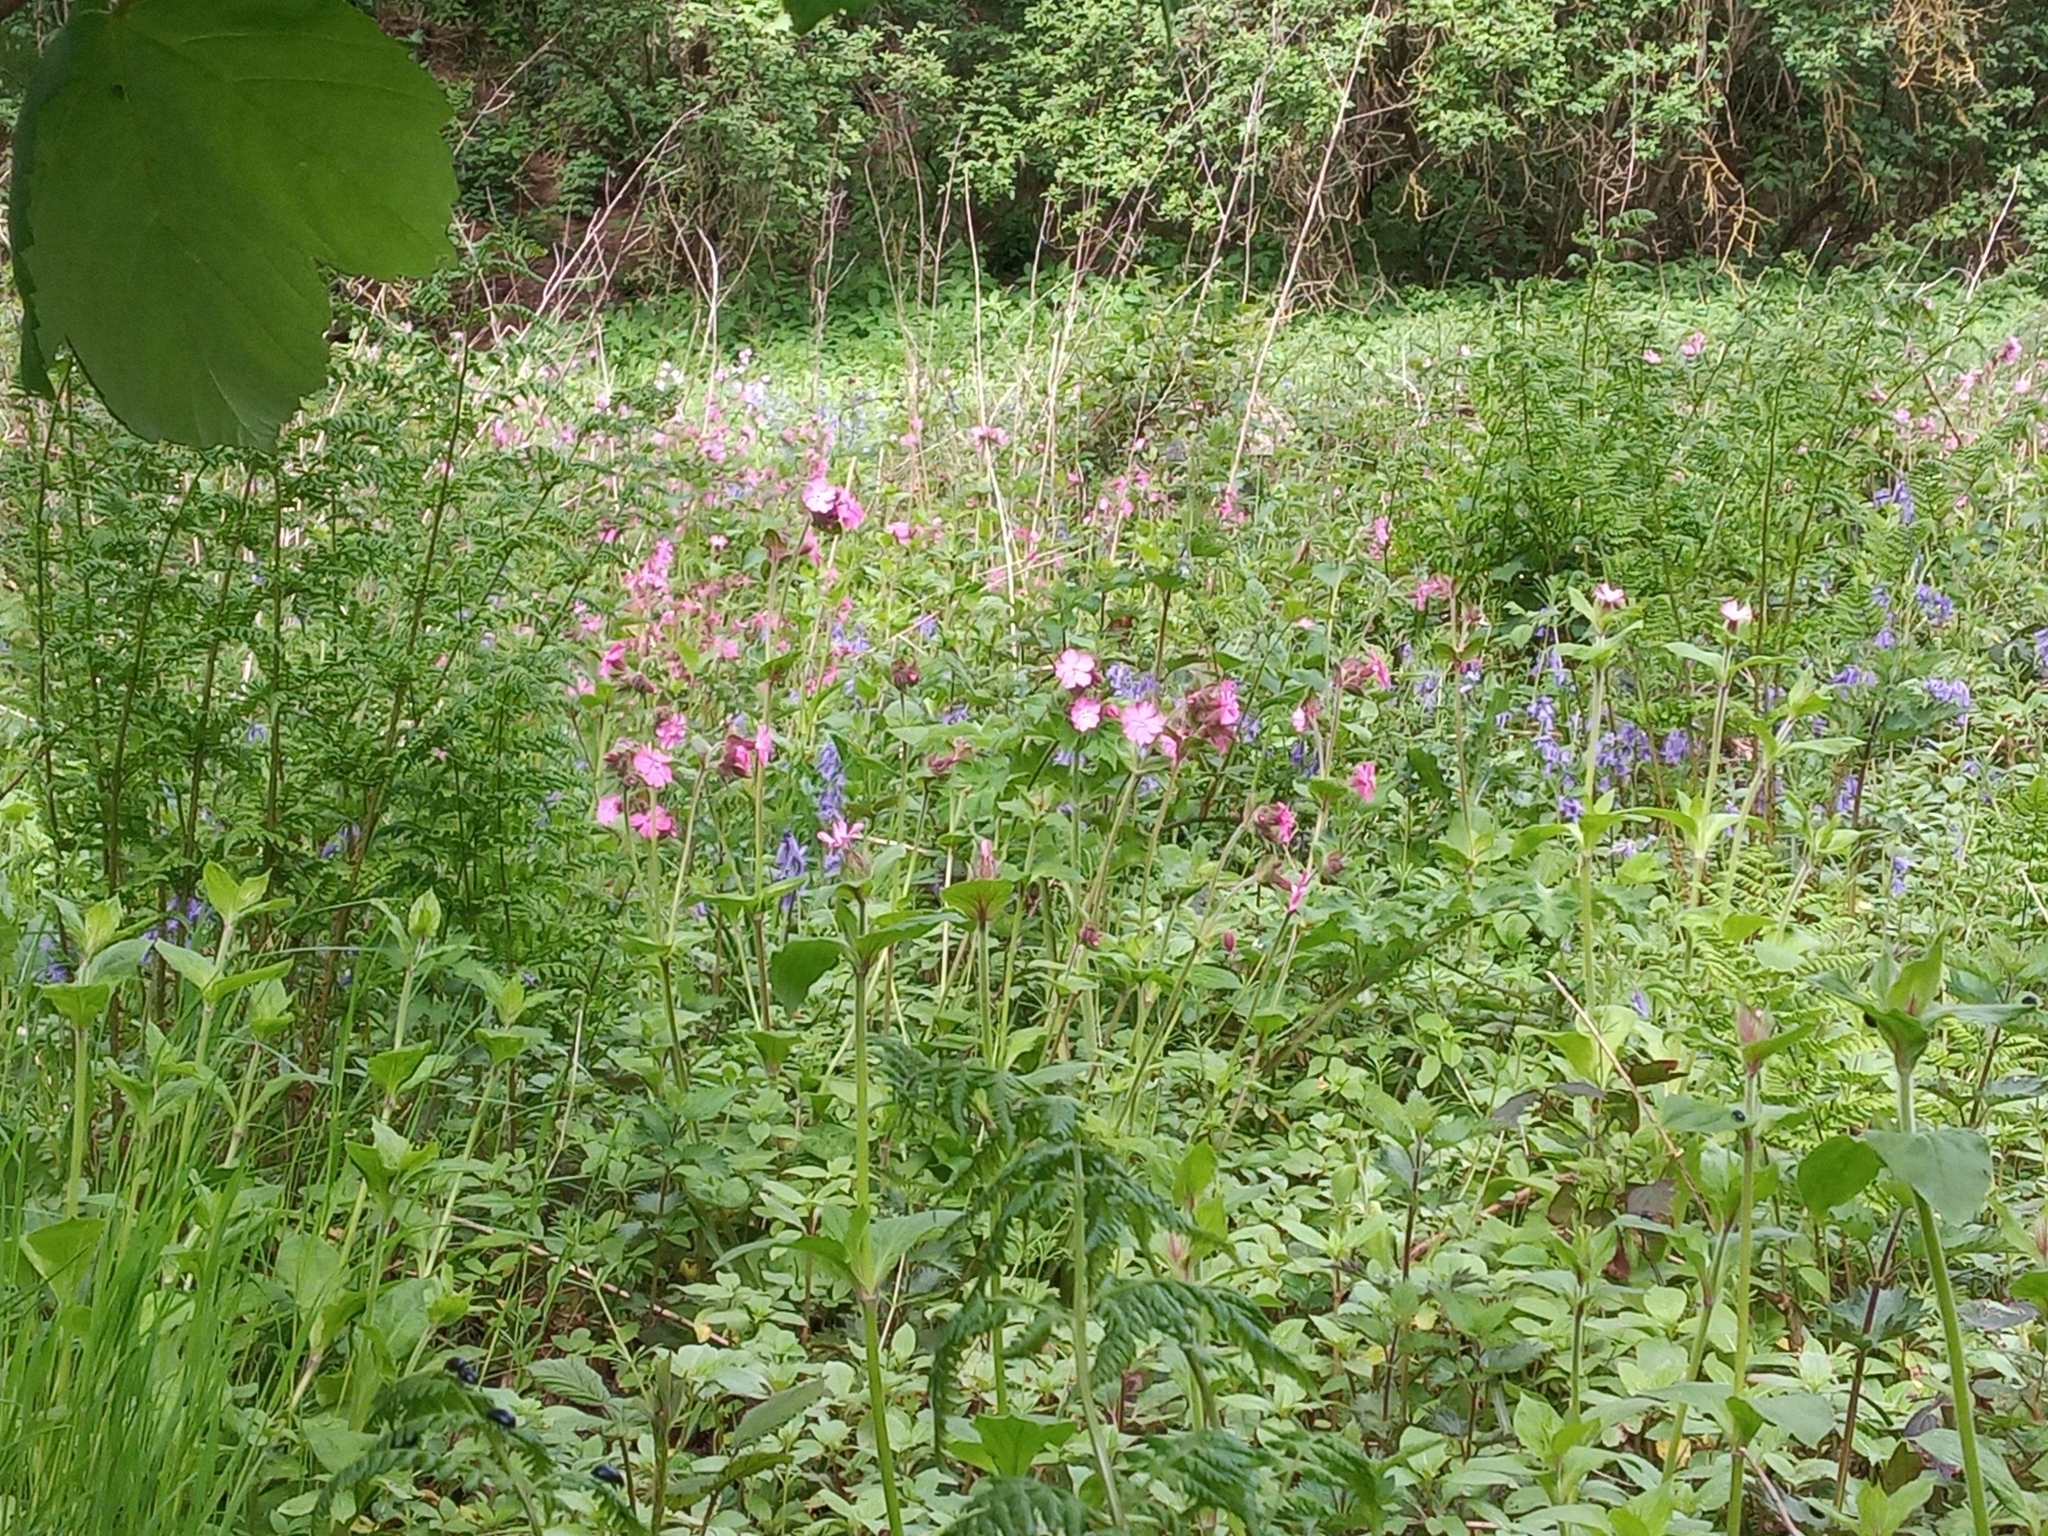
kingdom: Plantae
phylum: Tracheophyta
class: Magnoliopsida
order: Caryophyllales
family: Caryophyllaceae
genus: Silene
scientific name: Silene dioica
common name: Red campion
